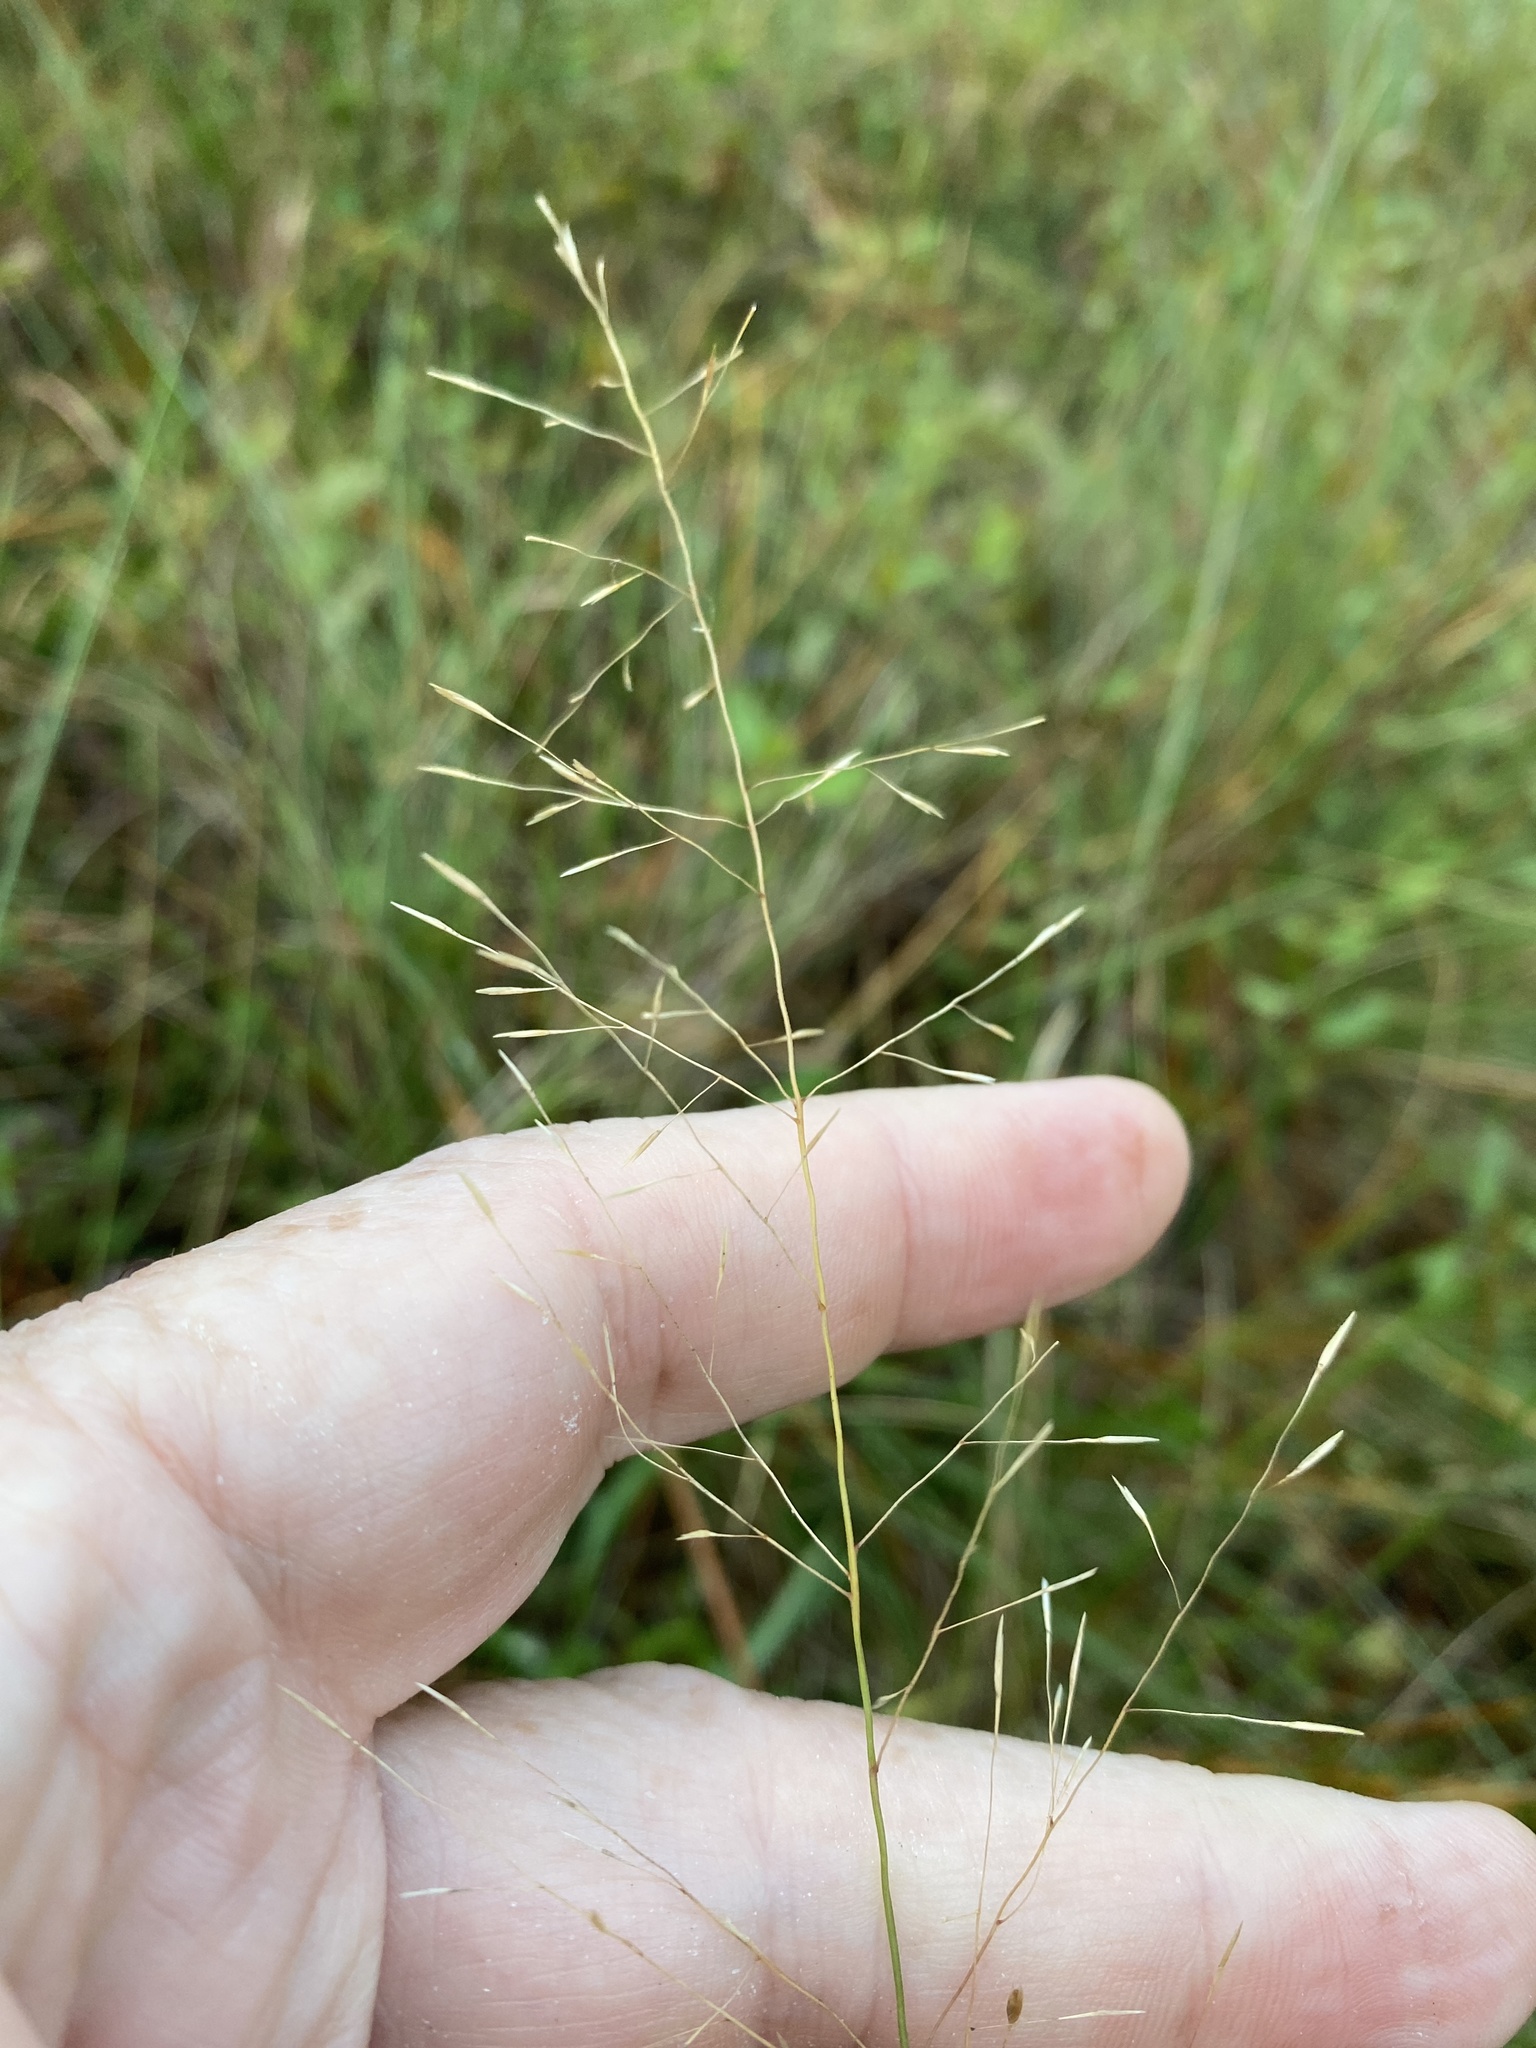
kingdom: Plantae
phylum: Tracheophyta
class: Liliopsida
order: Poales
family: Poaceae
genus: Muhlenbergia
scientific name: Muhlenbergia expansa
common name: Savannah hairgrass
